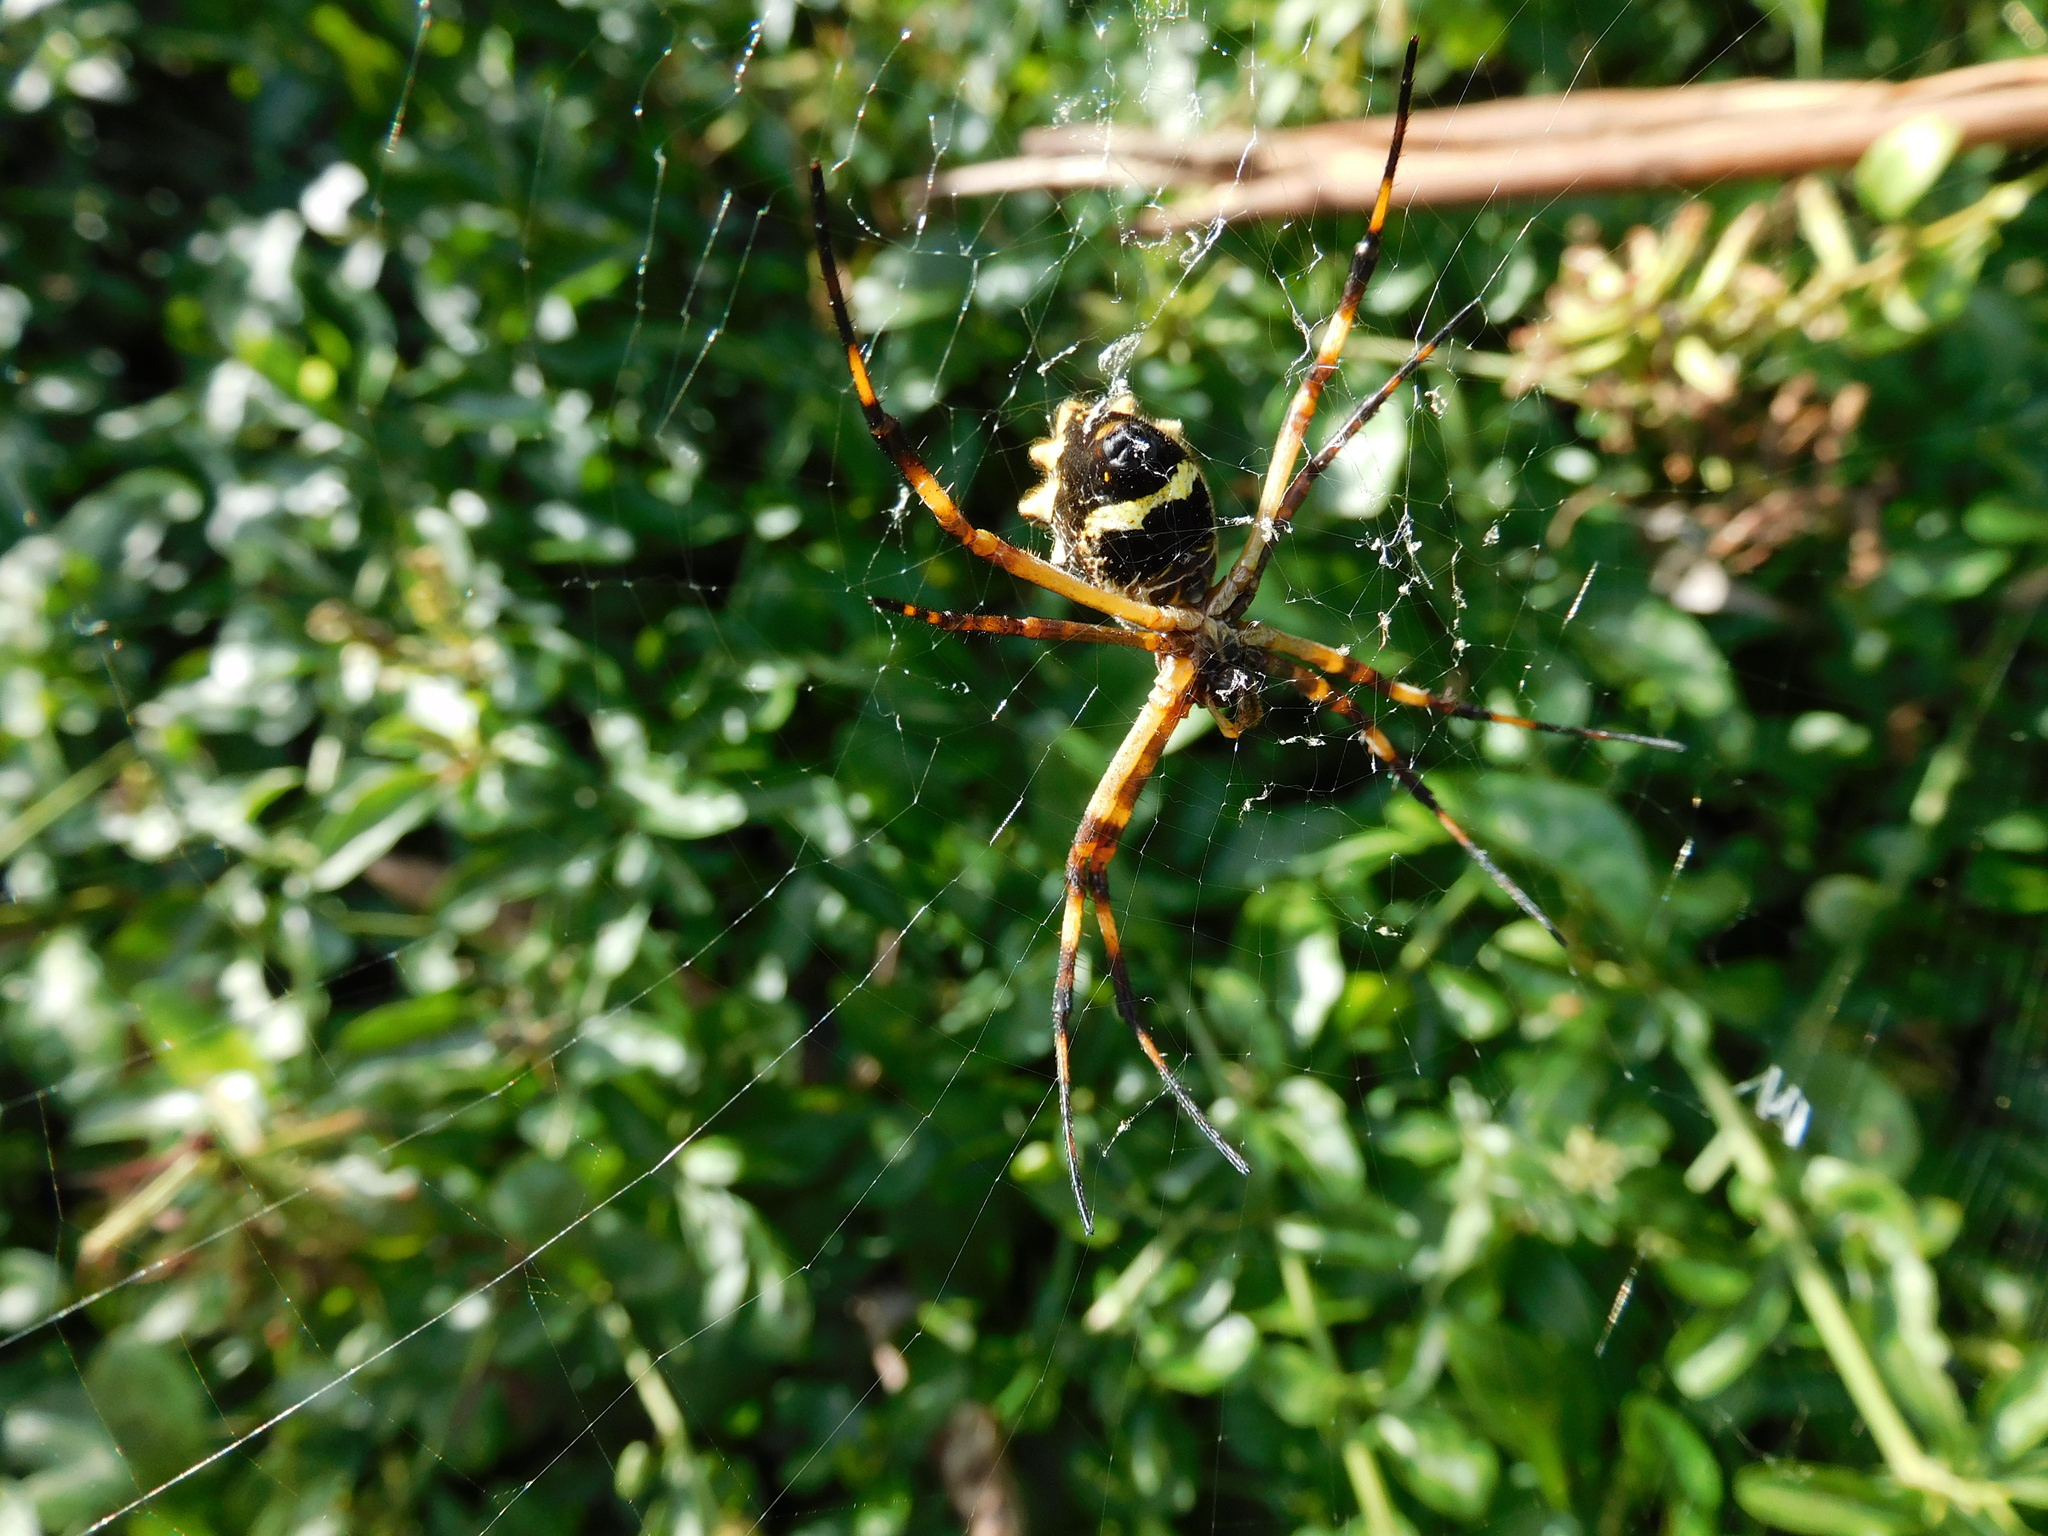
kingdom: Animalia
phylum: Arthropoda
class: Arachnida
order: Araneae
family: Araneidae
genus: Argiope
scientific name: Argiope argentata
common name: Orb weavers
